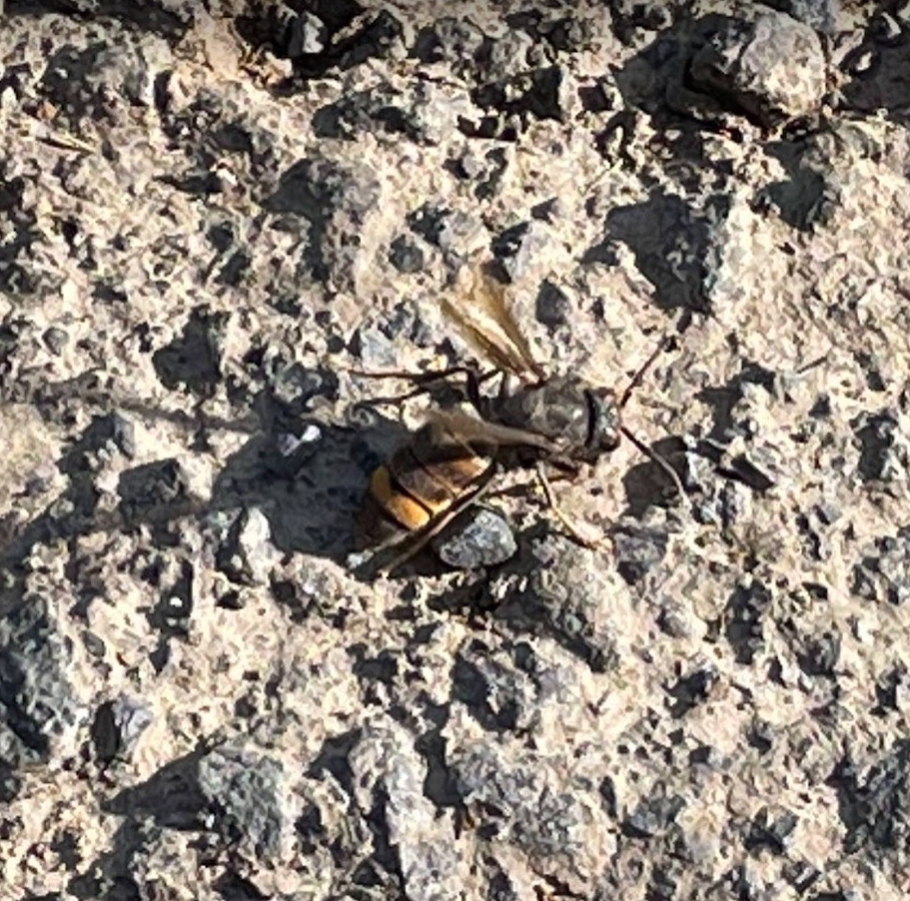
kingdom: Animalia
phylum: Arthropoda
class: Insecta
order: Hymenoptera
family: Vespidae
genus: Vespa
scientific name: Vespa velutina
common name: Asian hornet
